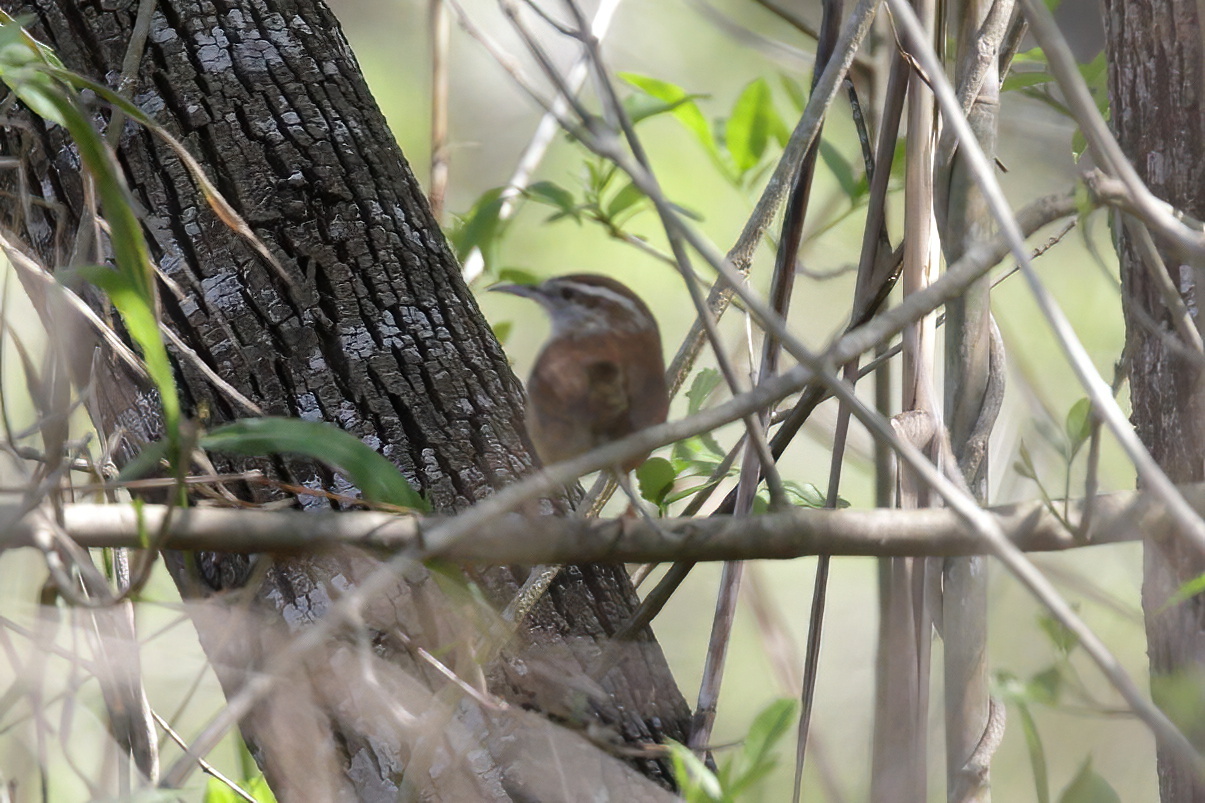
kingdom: Animalia
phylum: Chordata
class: Aves
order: Passeriformes
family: Troglodytidae
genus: Thryothorus
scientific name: Thryothorus ludovicianus
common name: Carolina wren
